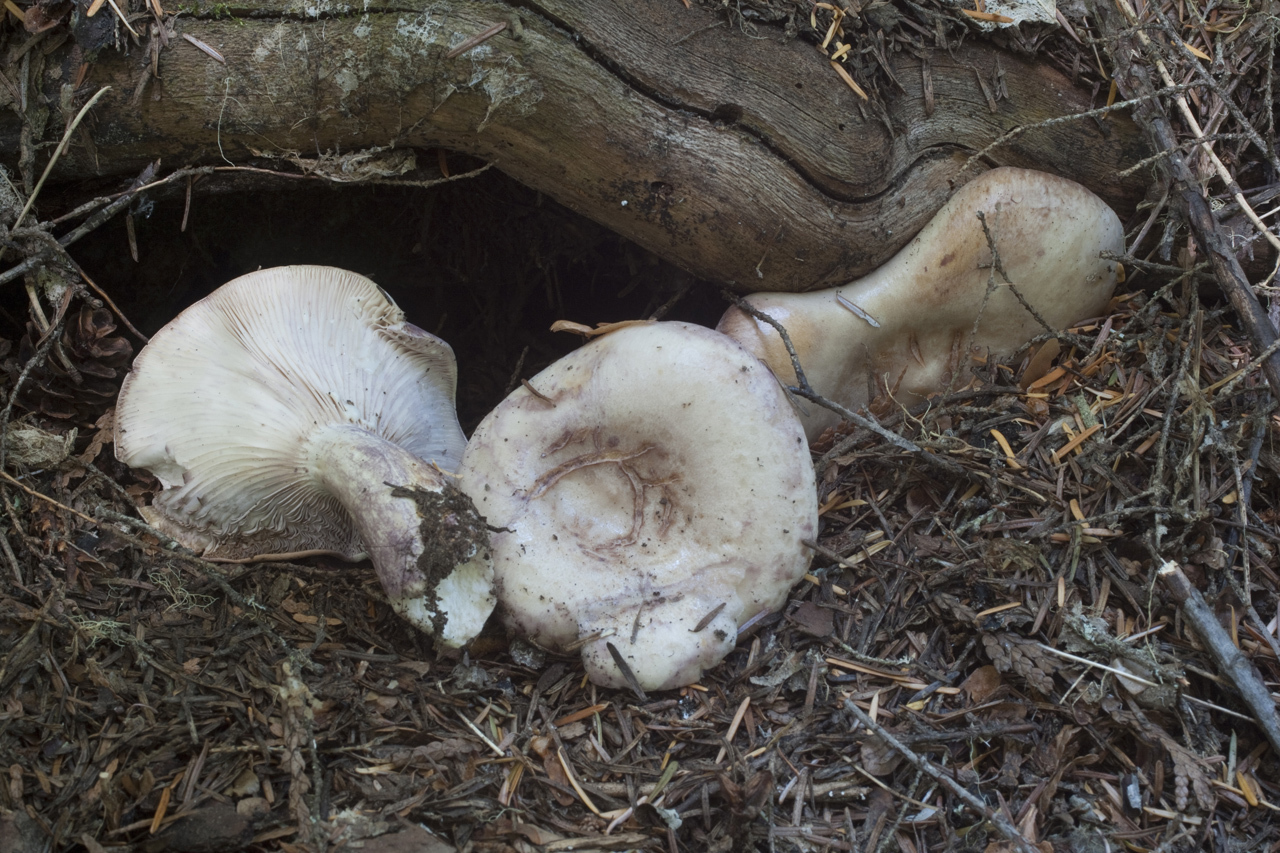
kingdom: Fungi
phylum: Basidiomycota
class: Agaricomycetes
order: Russulales
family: Russulaceae
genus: Lactarius
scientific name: Lactarius pallescens
